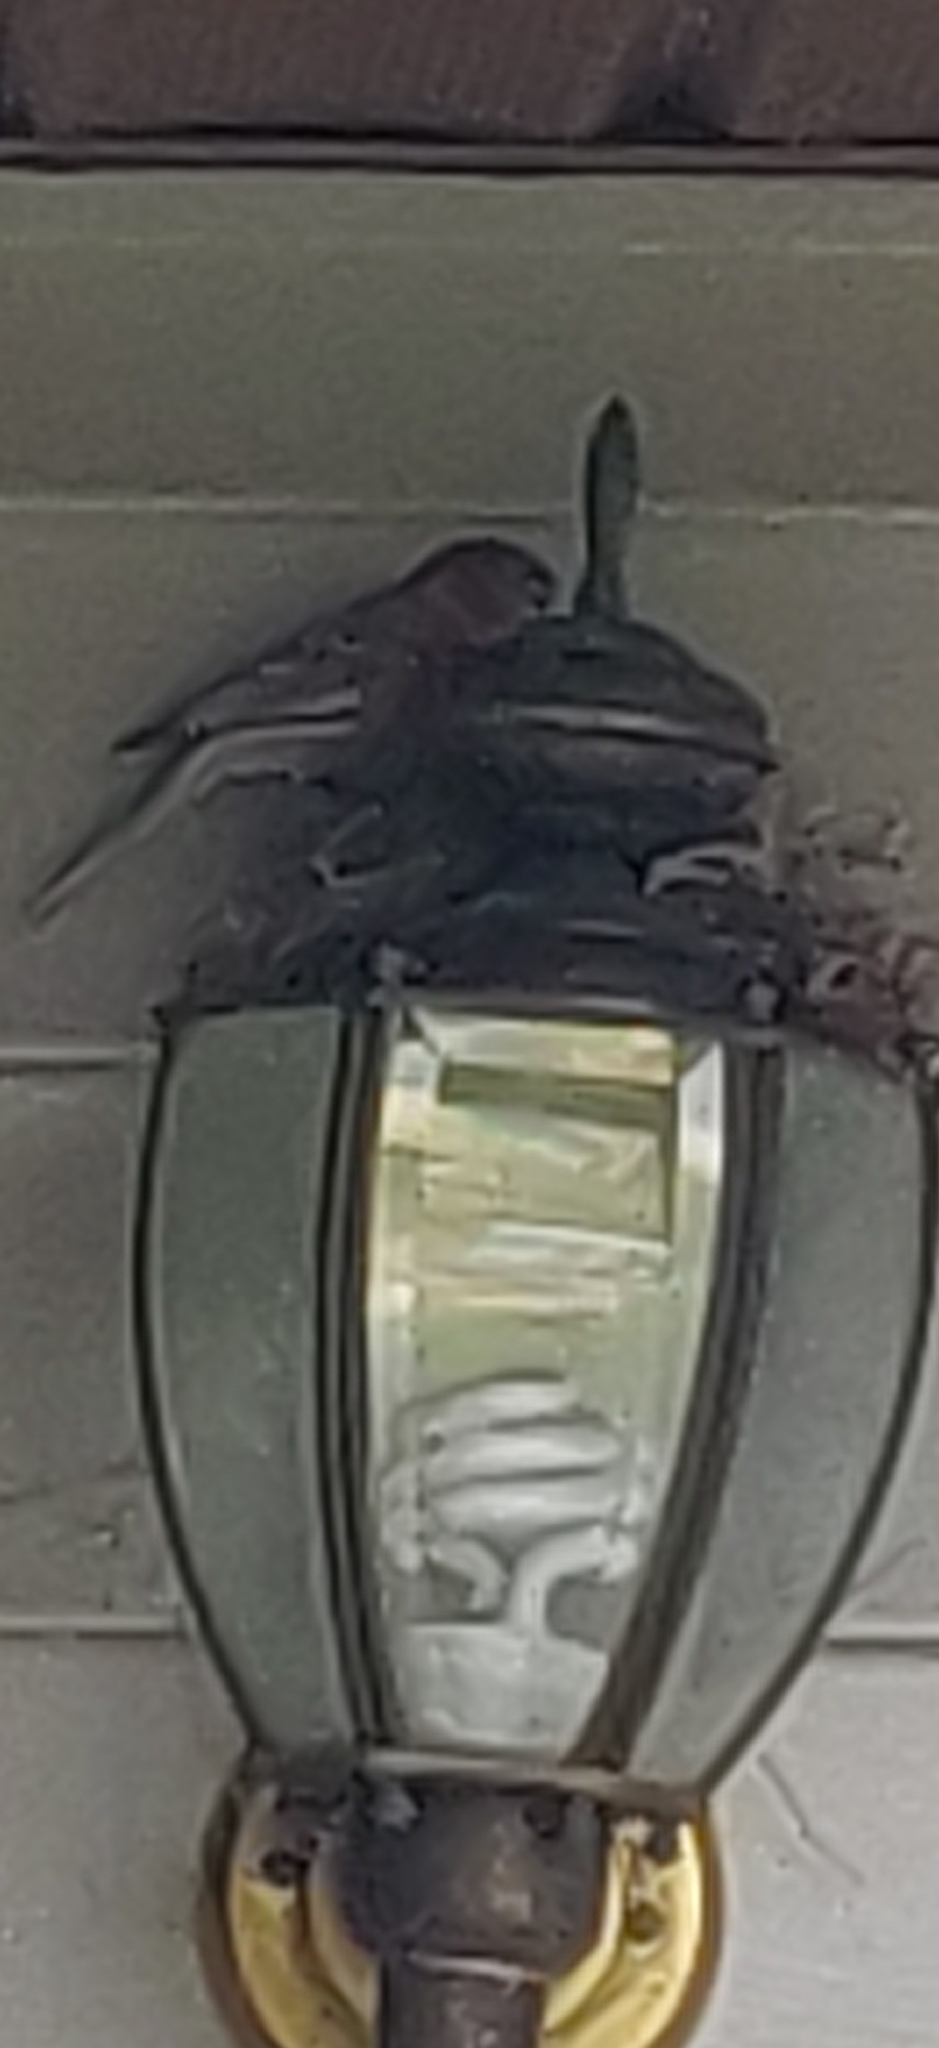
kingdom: Animalia
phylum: Chordata
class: Aves
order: Passeriformes
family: Fringillidae
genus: Haemorhous
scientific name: Haemorhous mexicanus
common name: House finch
